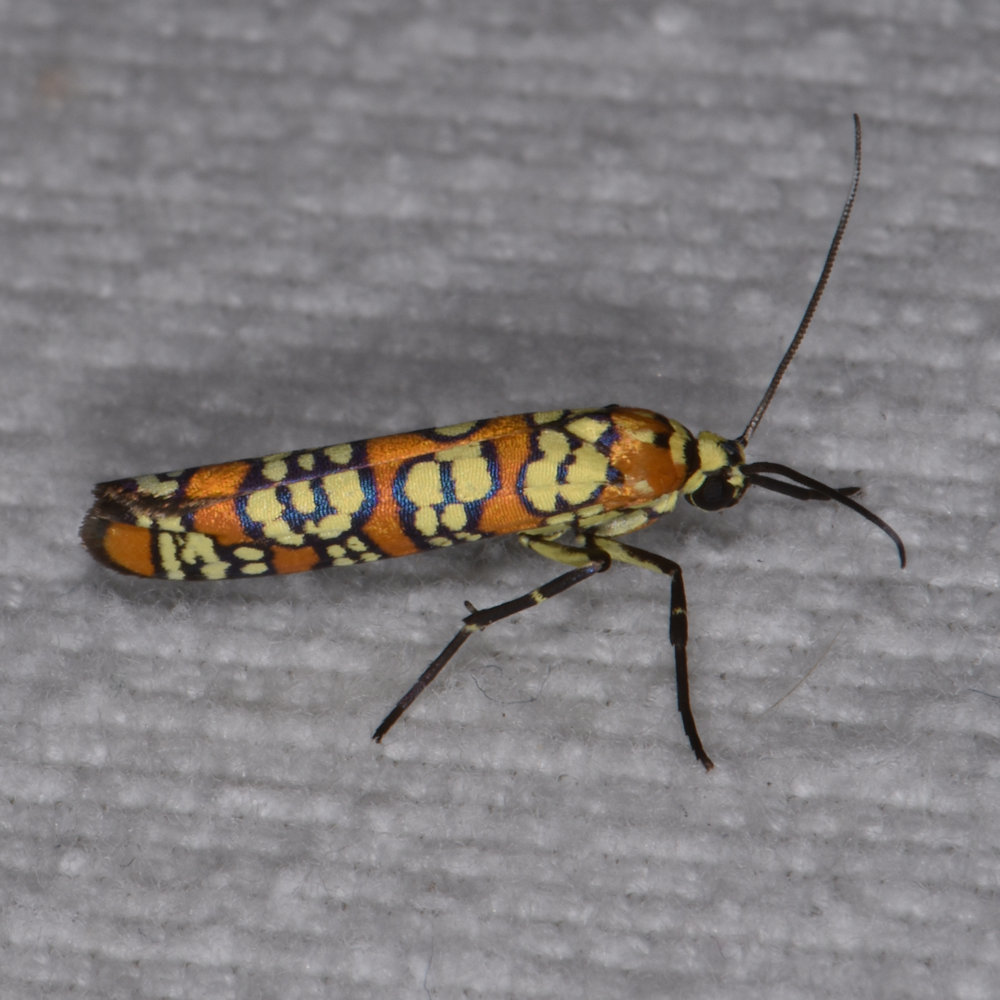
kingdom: Animalia
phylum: Arthropoda
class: Insecta
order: Lepidoptera
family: Attevidae
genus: Atteva
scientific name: Atteva punctella
